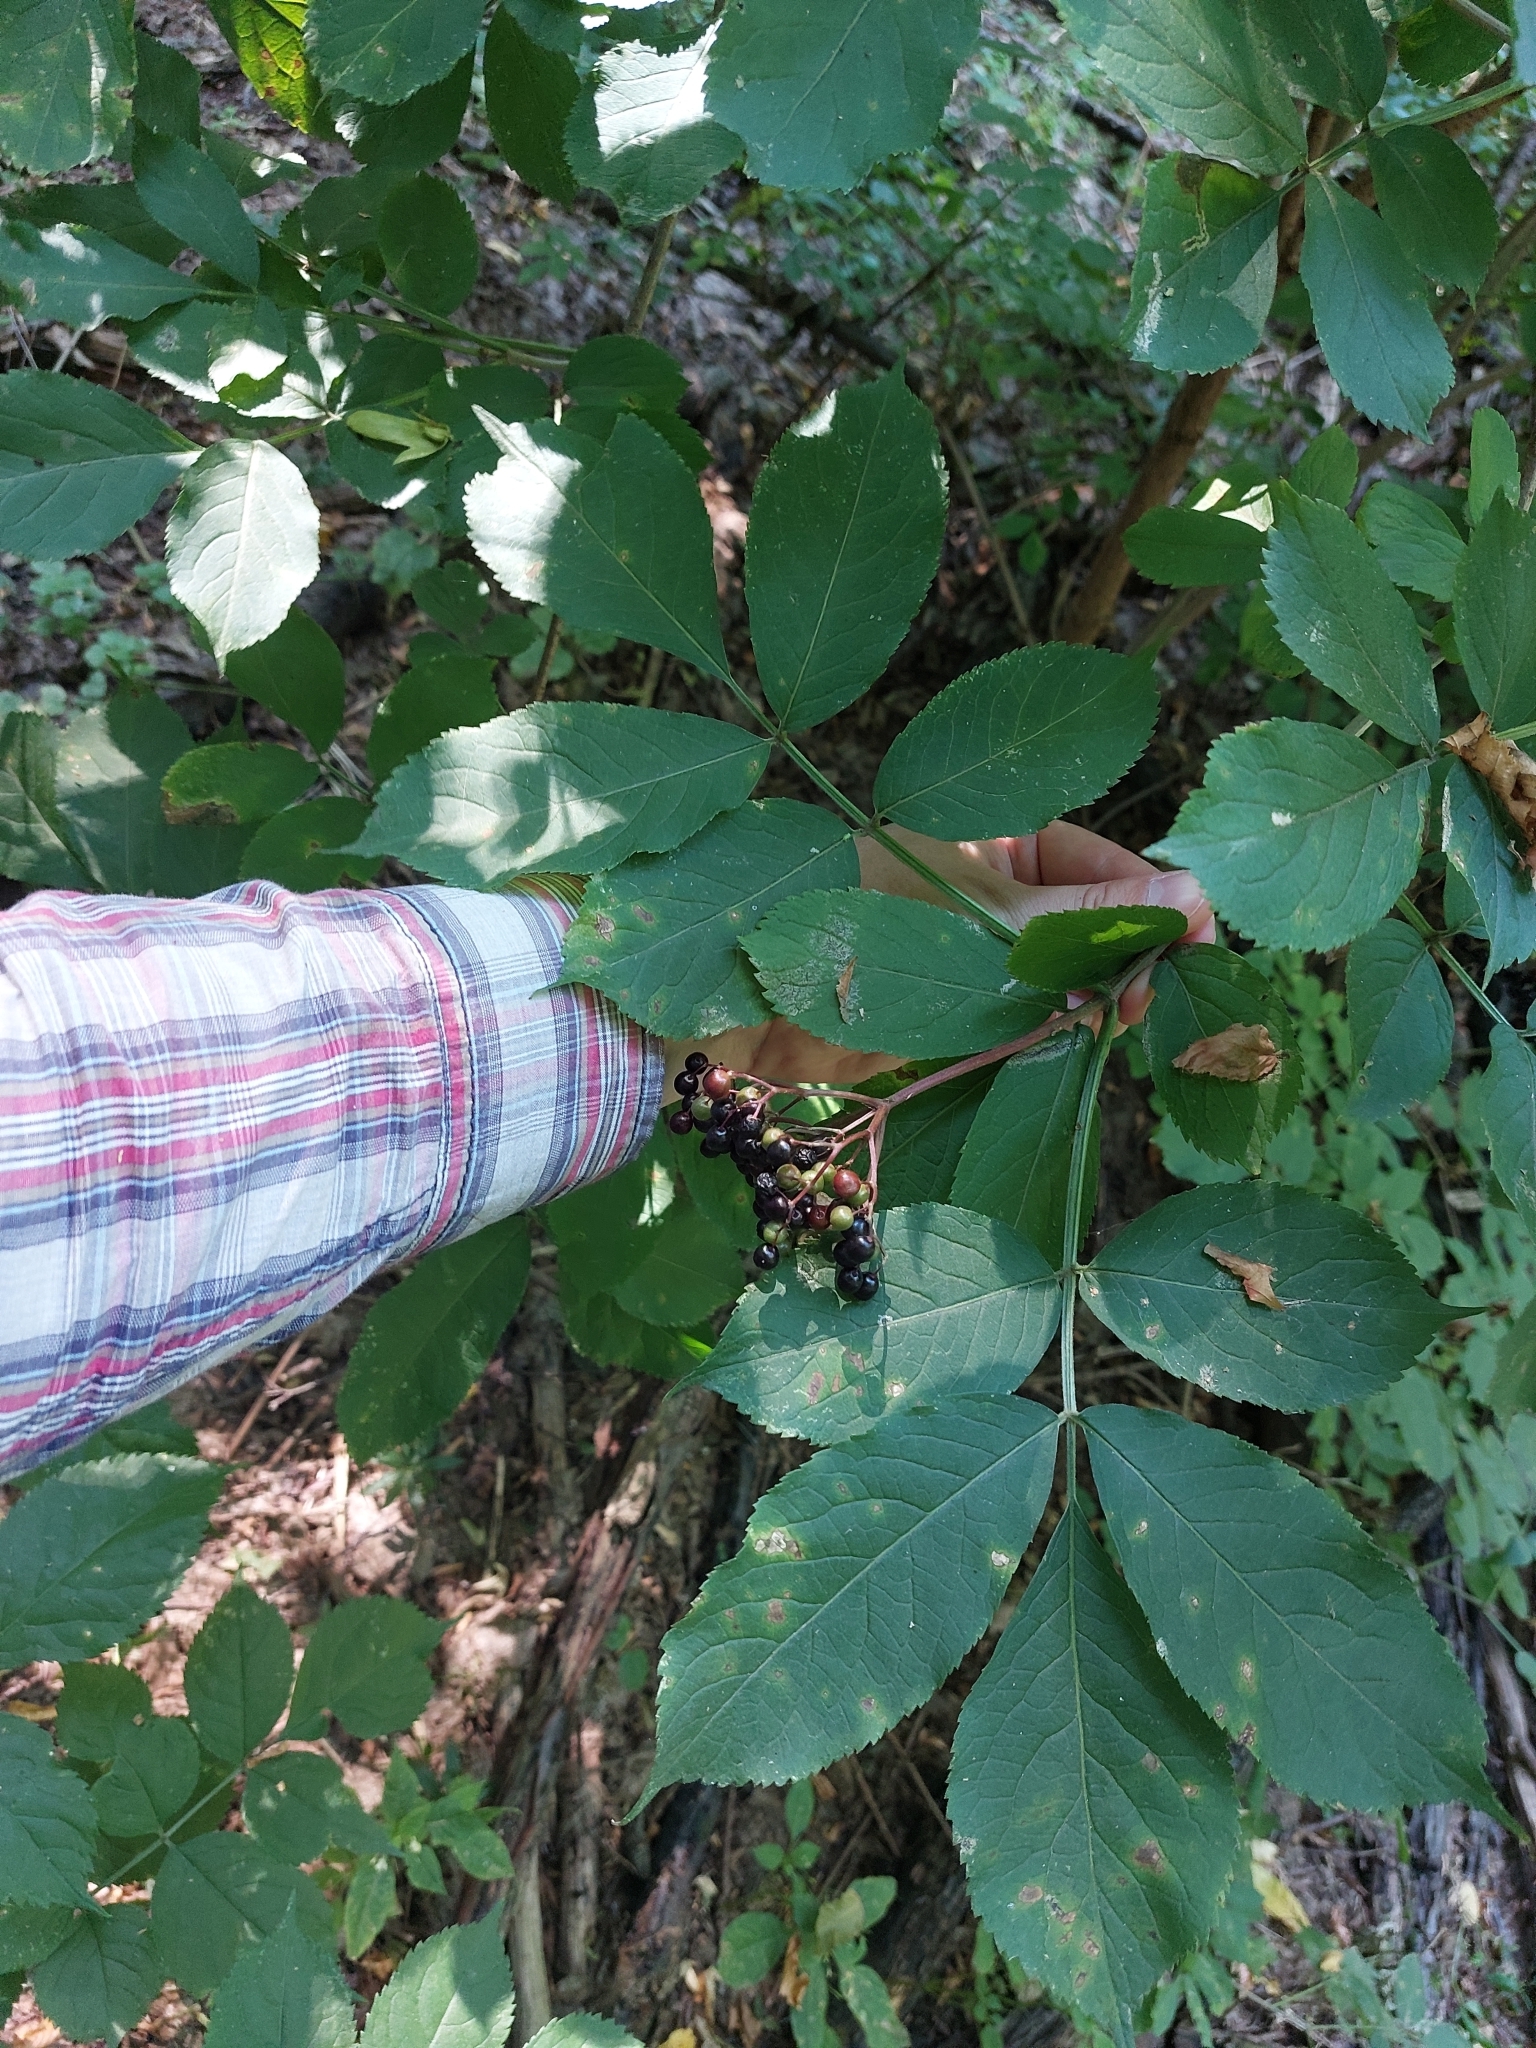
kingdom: Plantae
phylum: Tracheophyta
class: Magnoliopsida
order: Dipsacales
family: Viburnaceae
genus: Sambucus
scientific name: Sambucus nigra
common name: Elder
